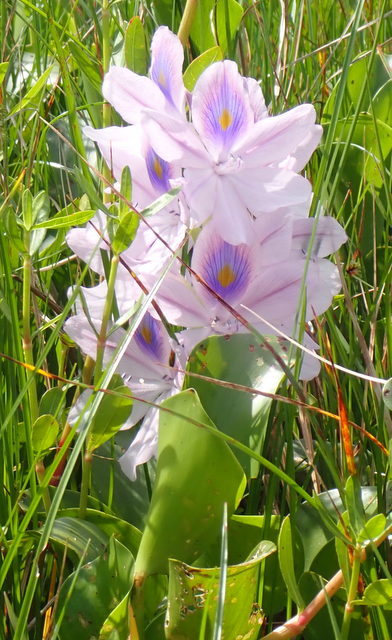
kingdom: Plantae
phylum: Tracheophyta
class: Liliopsida
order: Commelinales
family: Pontederiaceae
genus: Pontederia
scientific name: Pontederia crassipes
